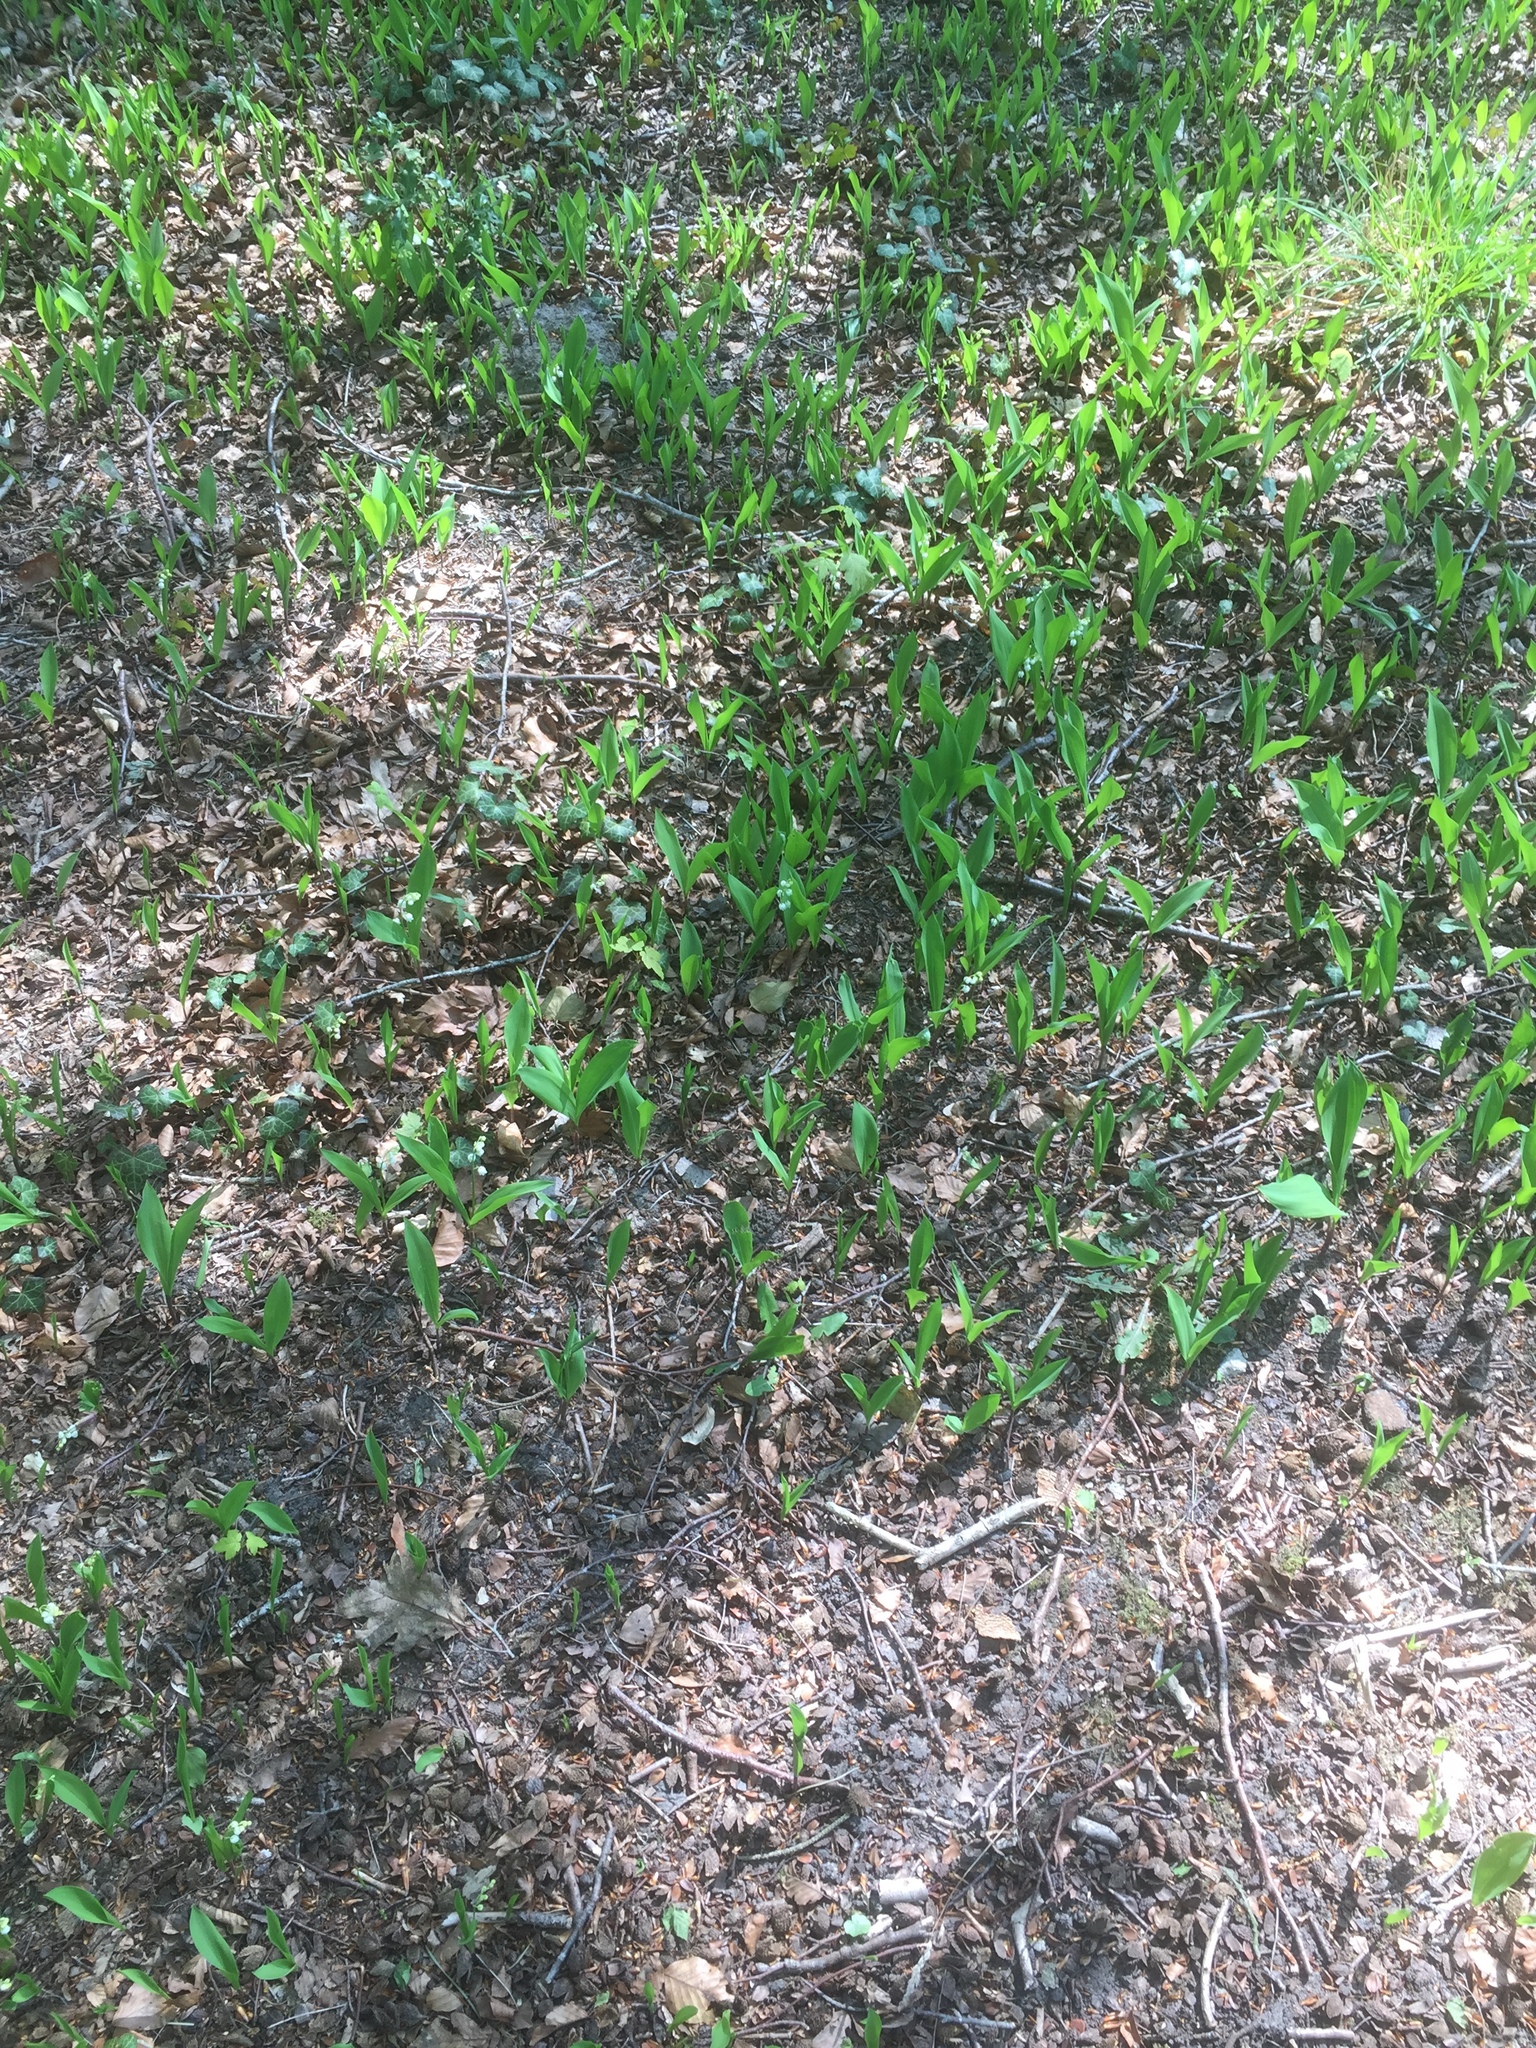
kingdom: Plantae
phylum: Tracheophyta
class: Liliopsida
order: Asparagales
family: Asparagaceae
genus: Convallaria
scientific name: Convallaria majalis
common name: Lily-of-the-valley
